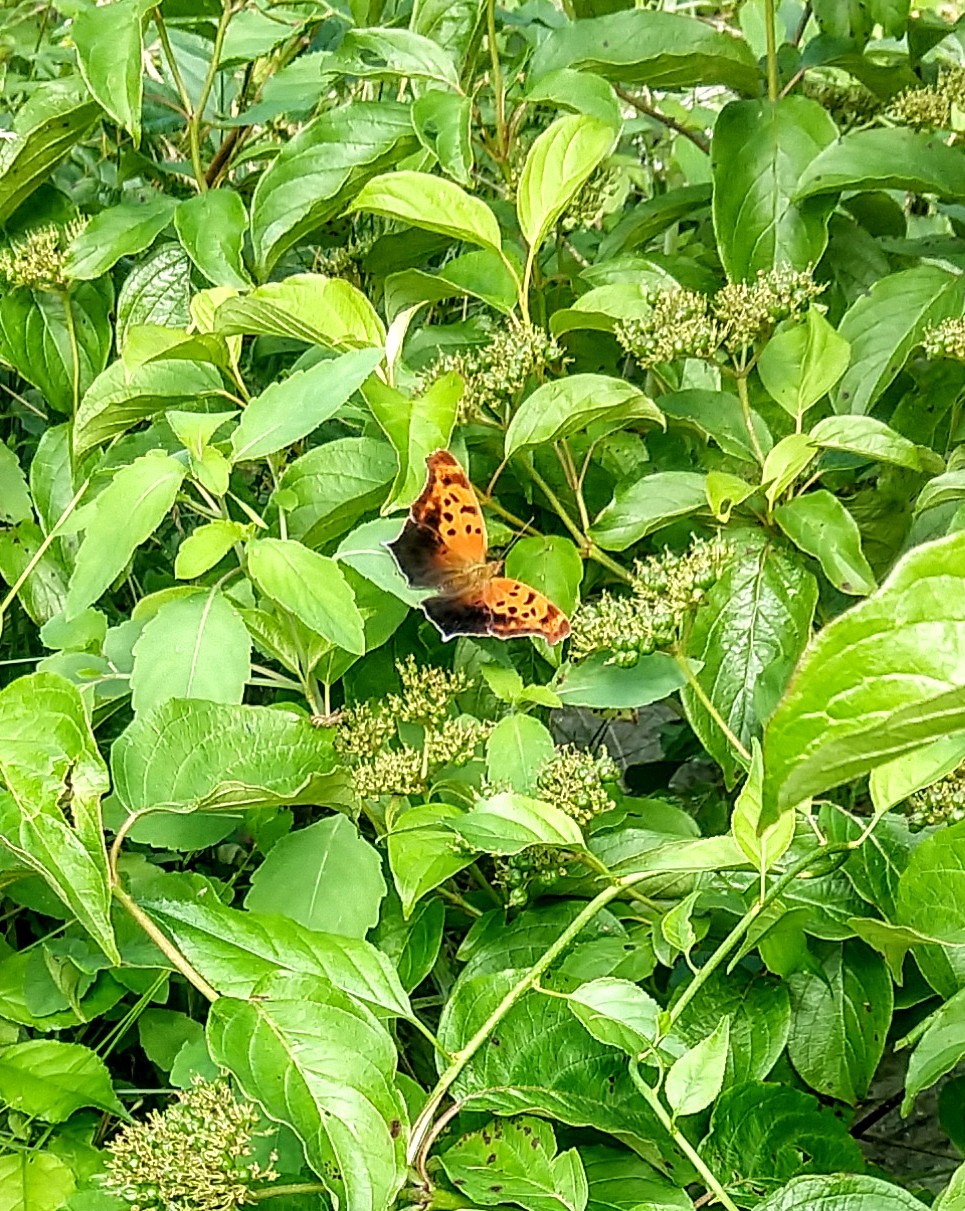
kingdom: Animalia
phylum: Arthropoda
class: Insecta
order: Lepidoptera
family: Nymphalidae
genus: Polygonia
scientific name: Polygonia interrogationis
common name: Question mark
